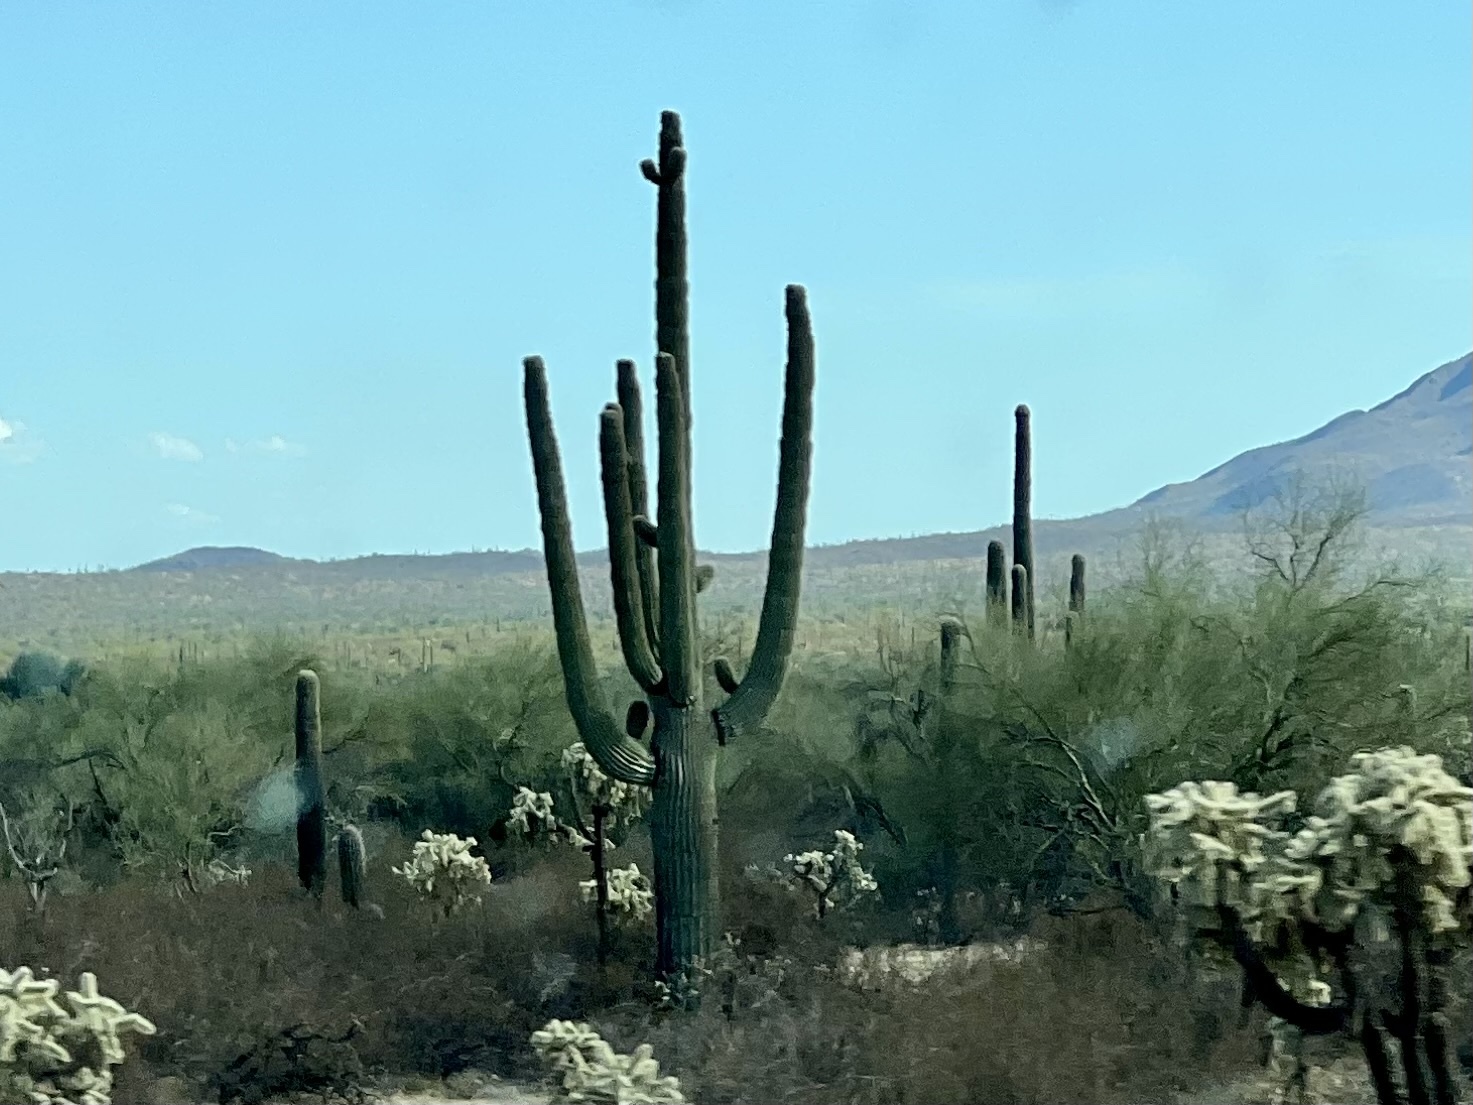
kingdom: Plantae
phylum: Tracheophyta
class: Magnoliopsida
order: Caryophyllales
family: Cactaceae
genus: Carnegiea
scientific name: Carnegiea gigantea
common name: Saguaro
